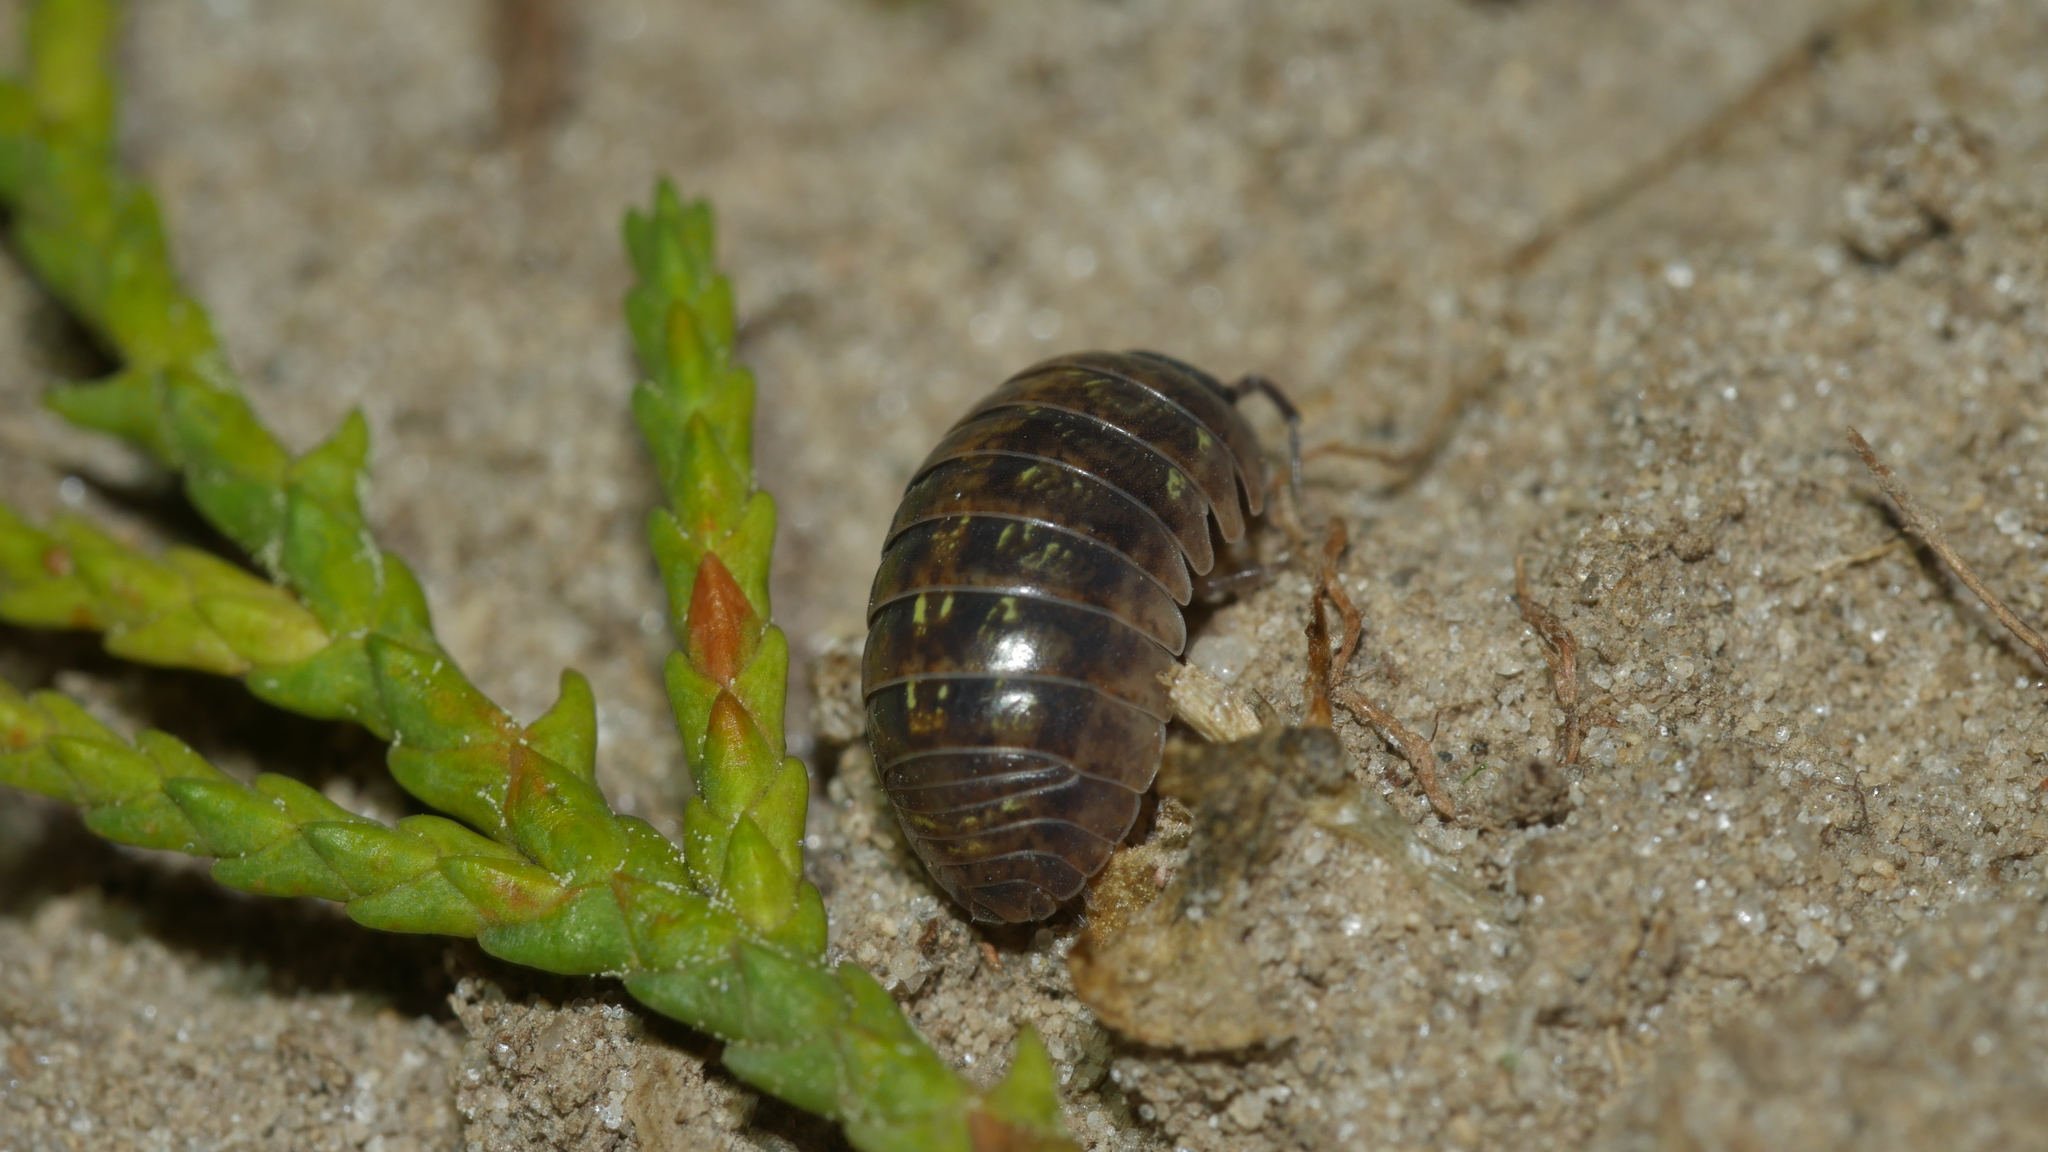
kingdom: Animalia
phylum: Arthropoda
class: Malacostraca
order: Isopoda
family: Armadillidiidae
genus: Armadillidium
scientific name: Armadillidium vulgare
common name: Common pill woodlouse
